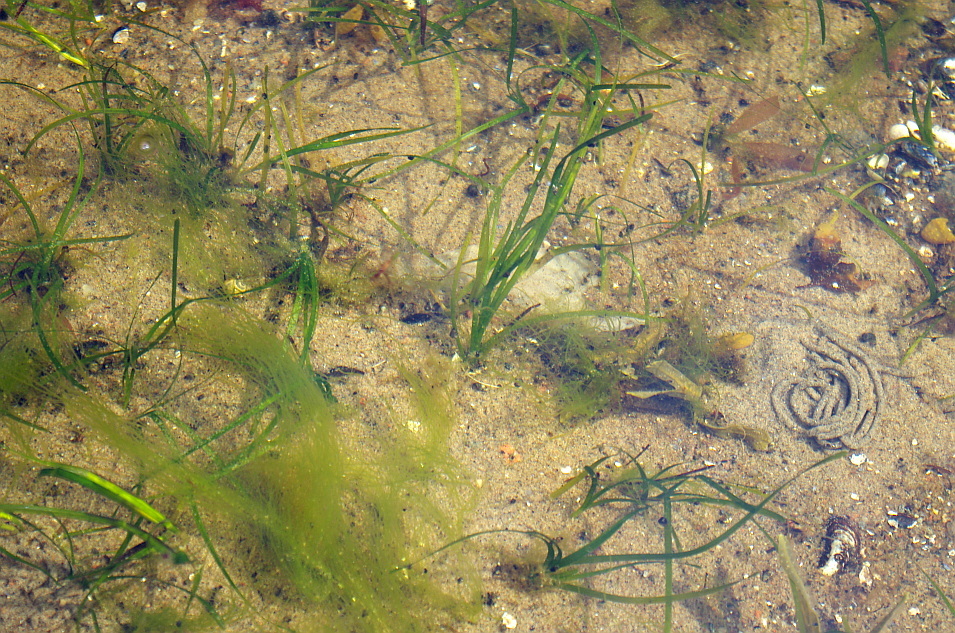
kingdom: Animalia
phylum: Annelida
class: Polychaeta
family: Arenicolidae
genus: Arenicola
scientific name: Arenicola marina
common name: Blow lugworm
